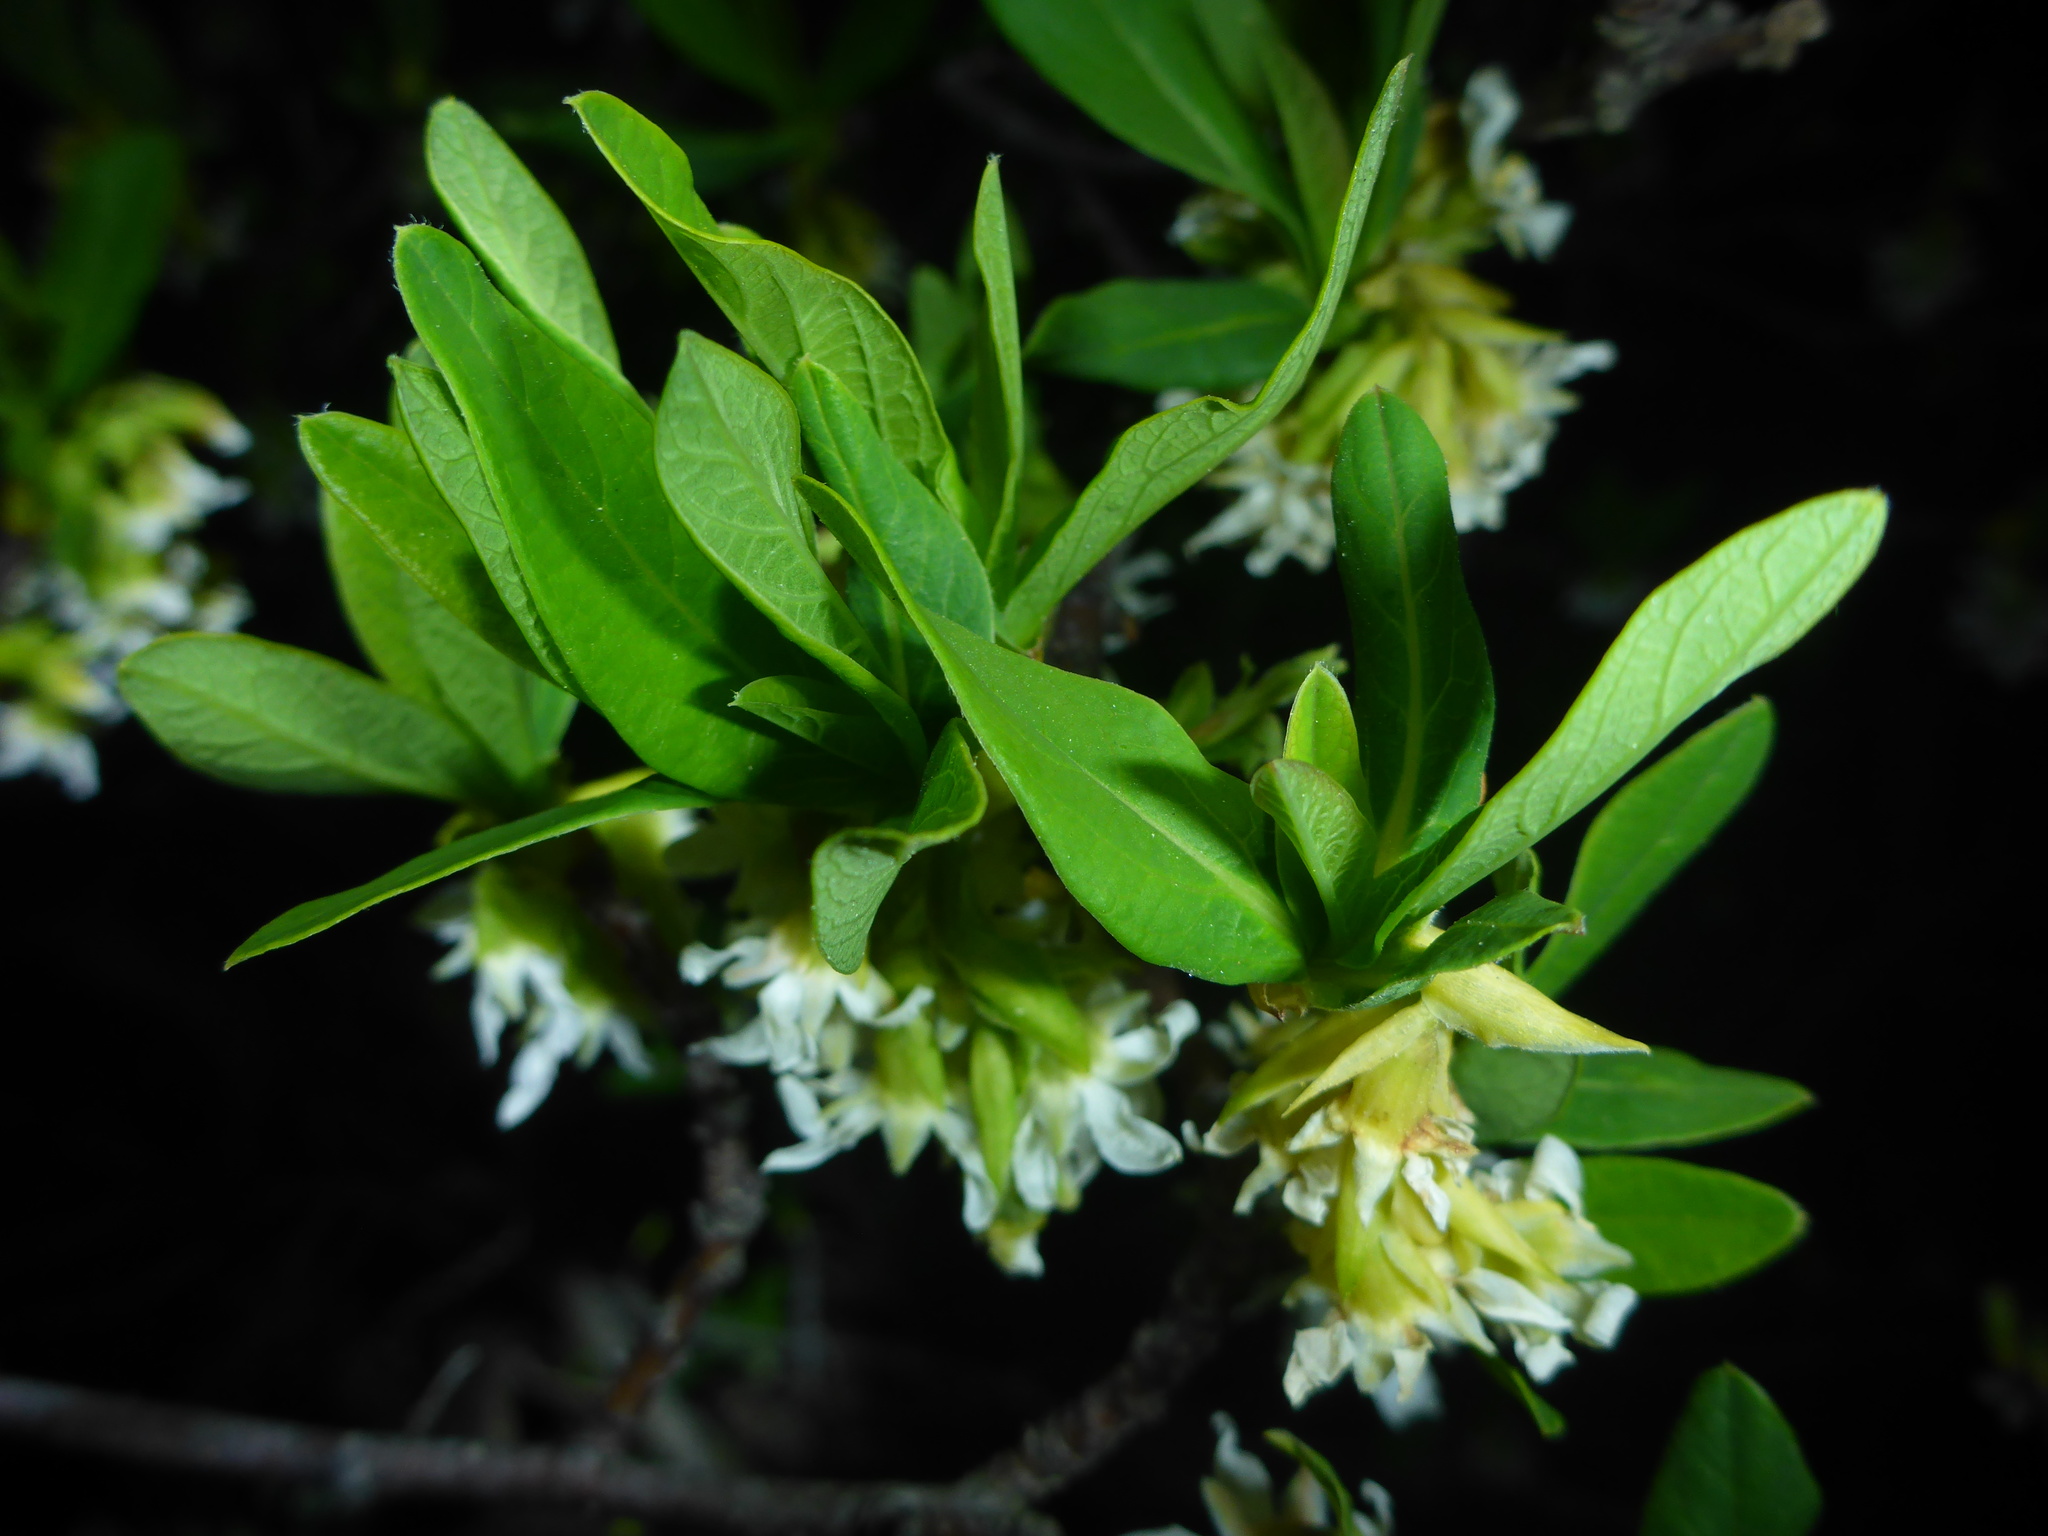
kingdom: Plantae
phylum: Tracheophyta
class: Magnoliopsida
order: Rosales
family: Rosaceae
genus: Oemleria
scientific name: Oemleria cerasiformis
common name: Osoberry
